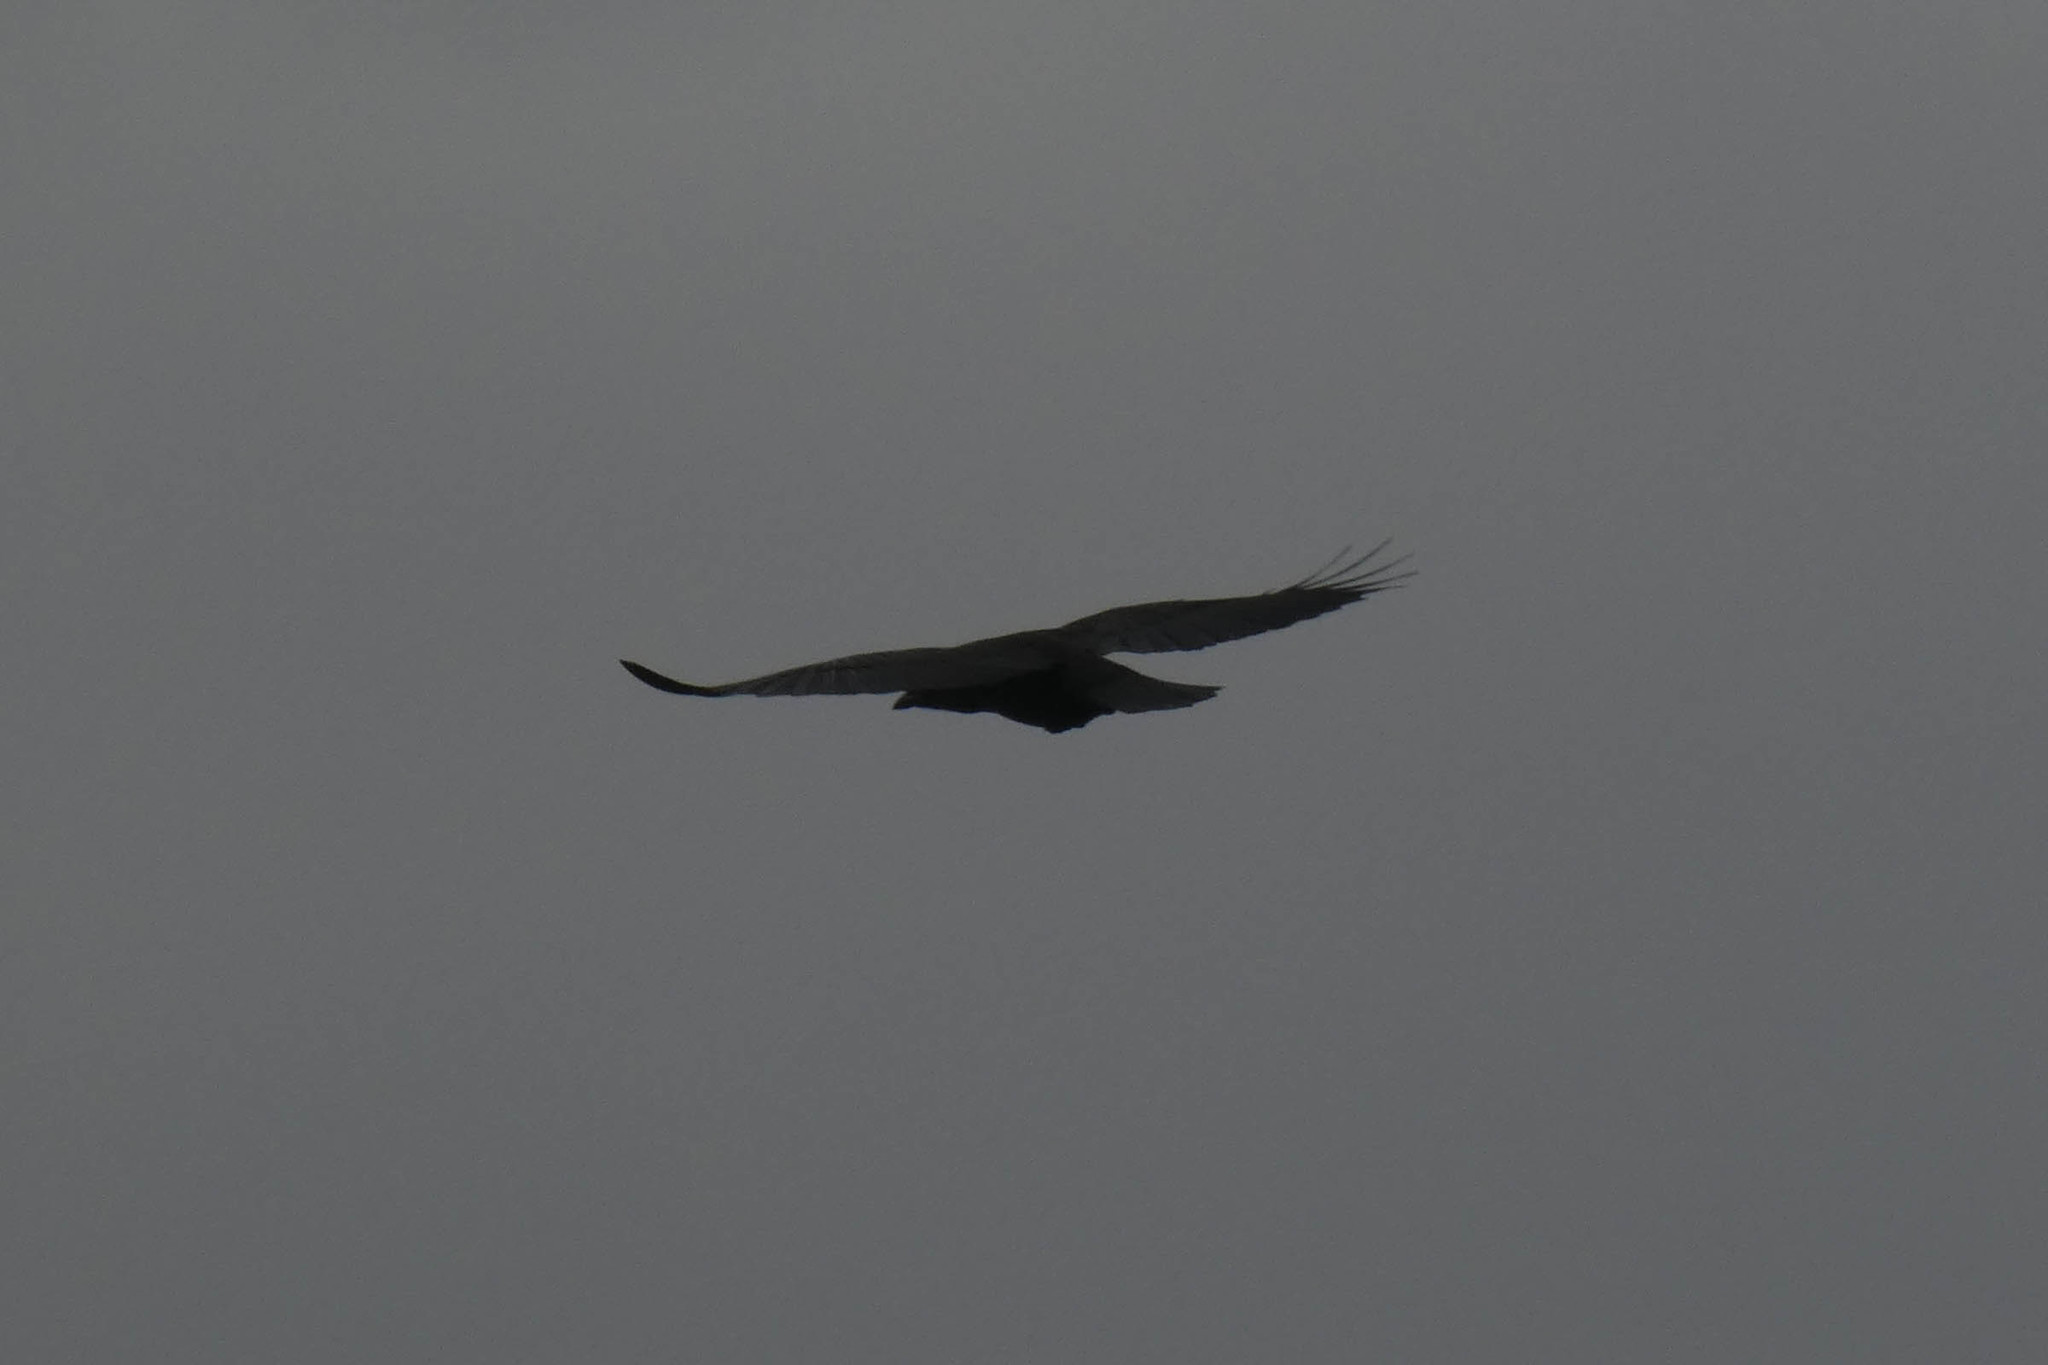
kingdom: Animalia
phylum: Chordata
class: Aves
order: Passeriformes
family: Corvidae
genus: Corvus
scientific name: Corvus brachyrhynchos
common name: American crow
